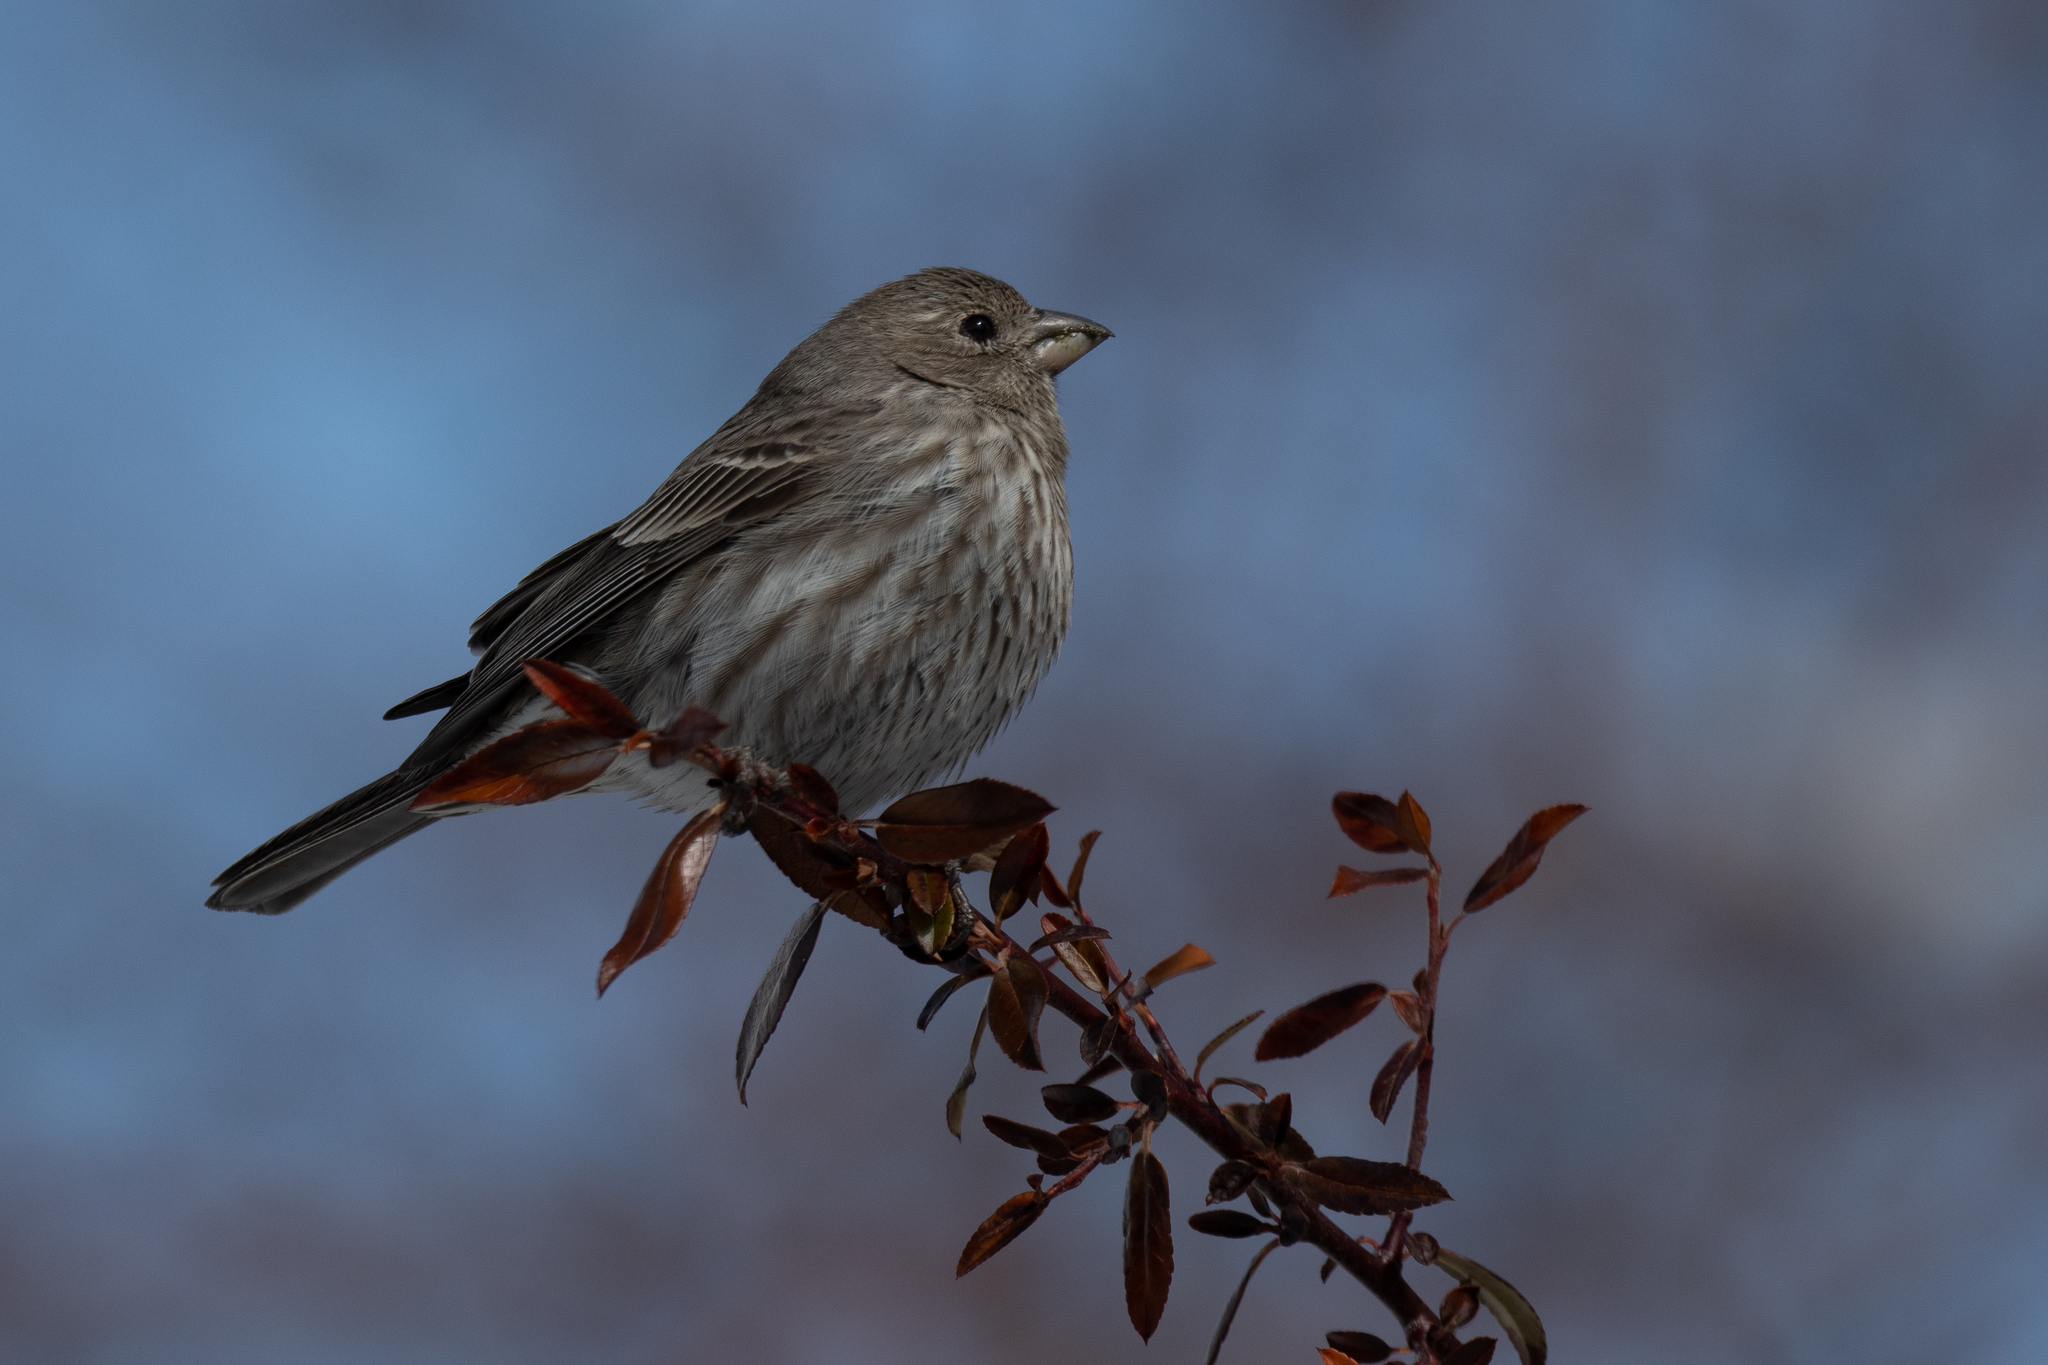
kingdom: Animalia
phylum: Chordata
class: Aves
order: Passeriformes
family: Fringillidae
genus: Haemorhous
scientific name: Haemorhous mexicanus
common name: House finch
